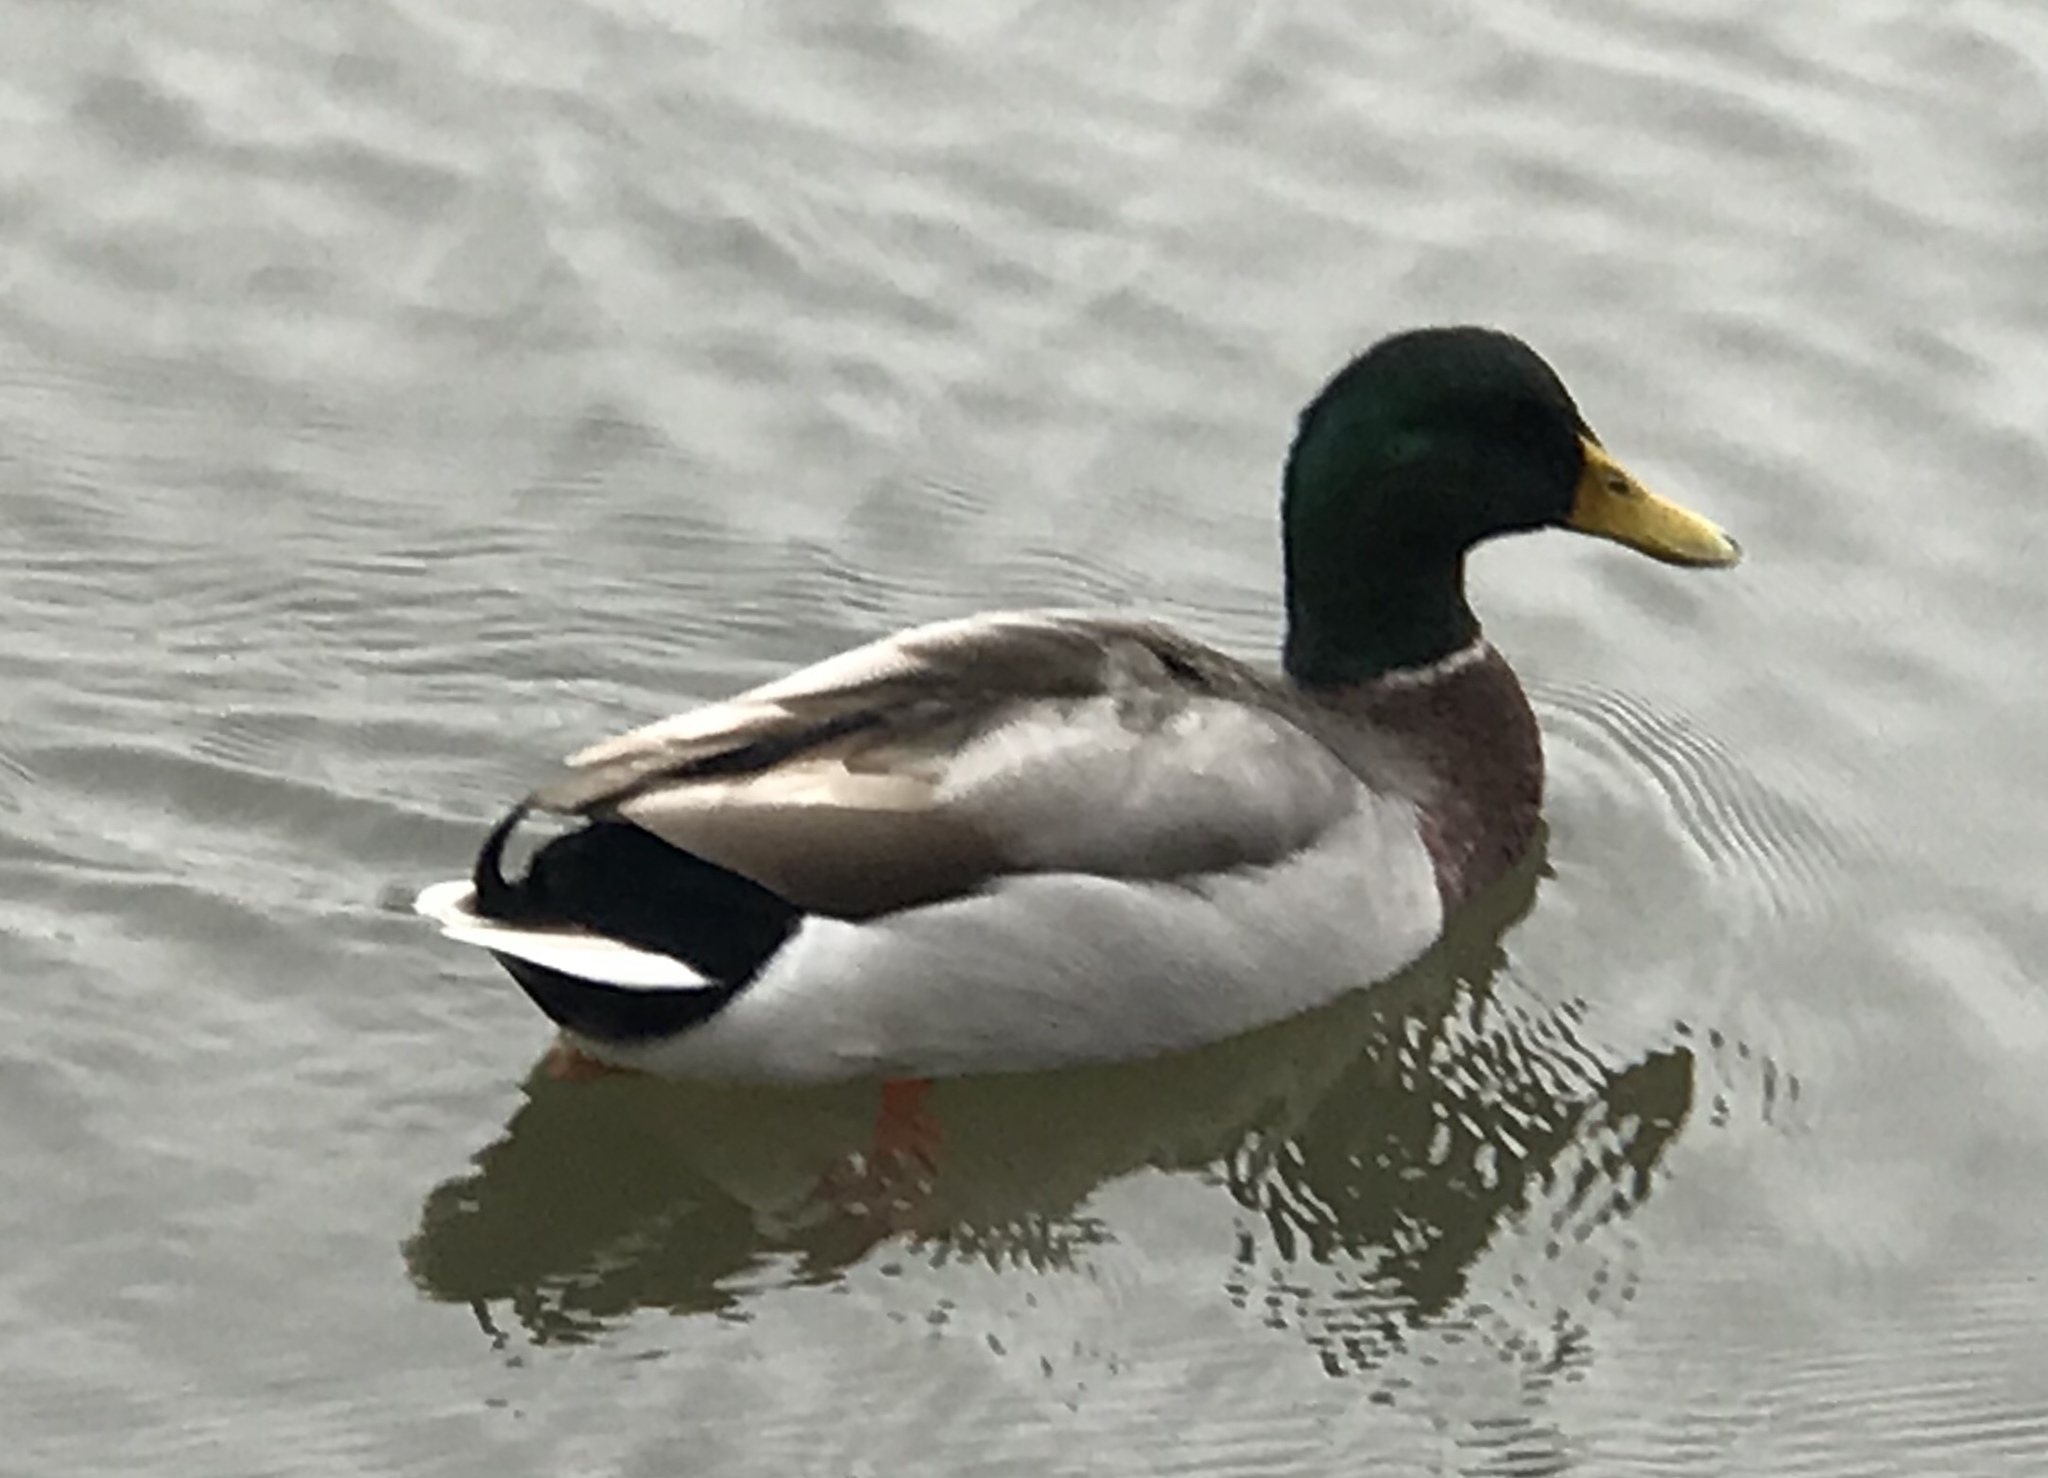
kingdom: Animalia
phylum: Chordata
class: Aves
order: Anseriformes
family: Anatidae
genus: Anas
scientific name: Anas platyrhynchos
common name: Mallard
